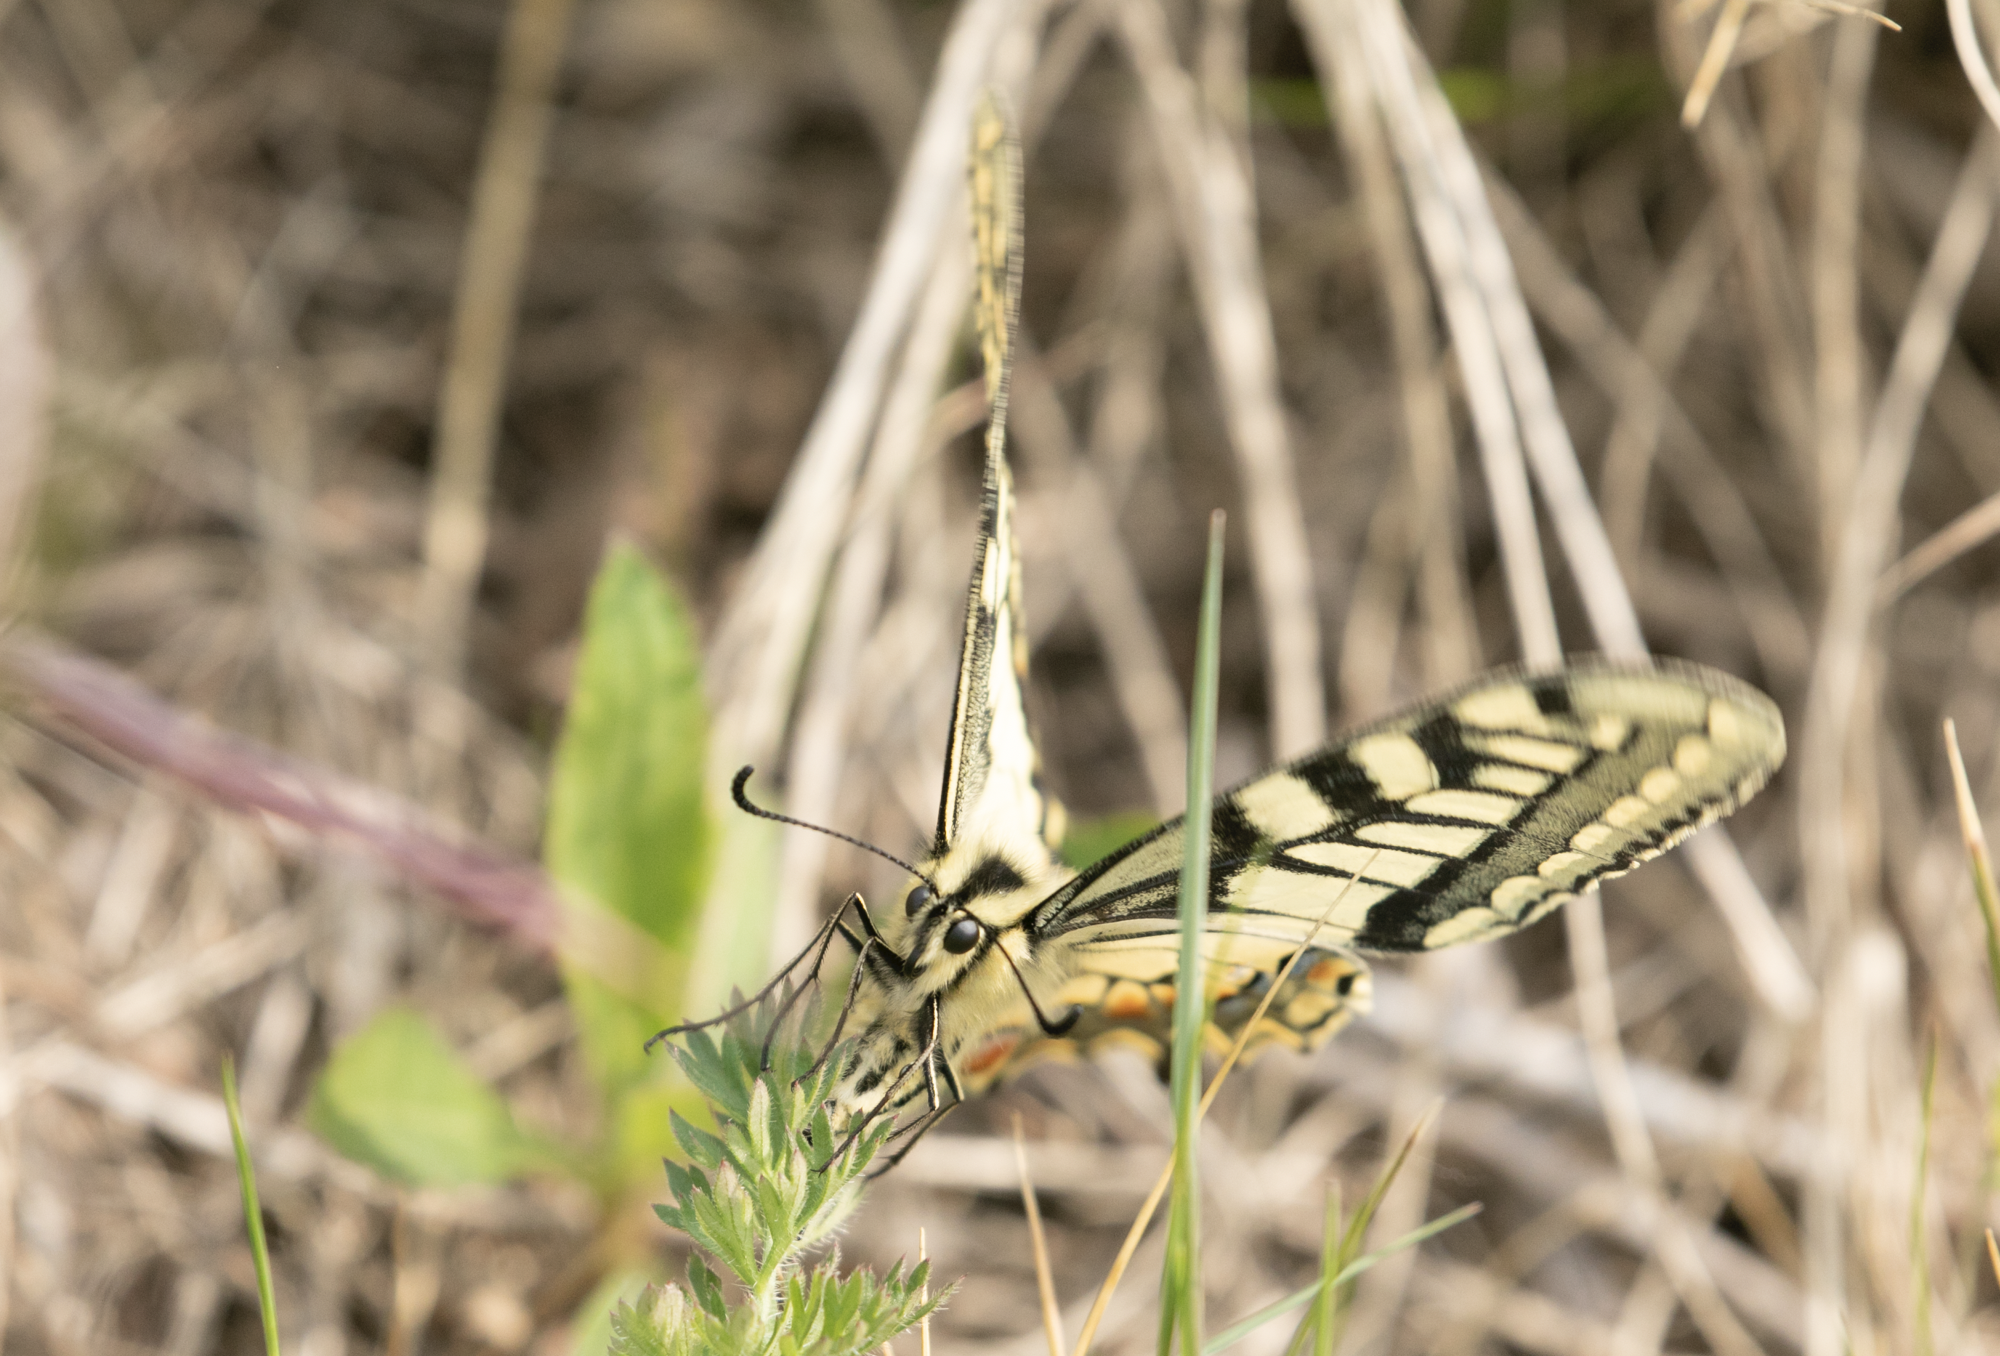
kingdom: Animalia
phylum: Arthropoda
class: Insecta
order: Lepidoptera
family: Papilionidae
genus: Papilio
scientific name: Papilio machaon
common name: Swallowtail
